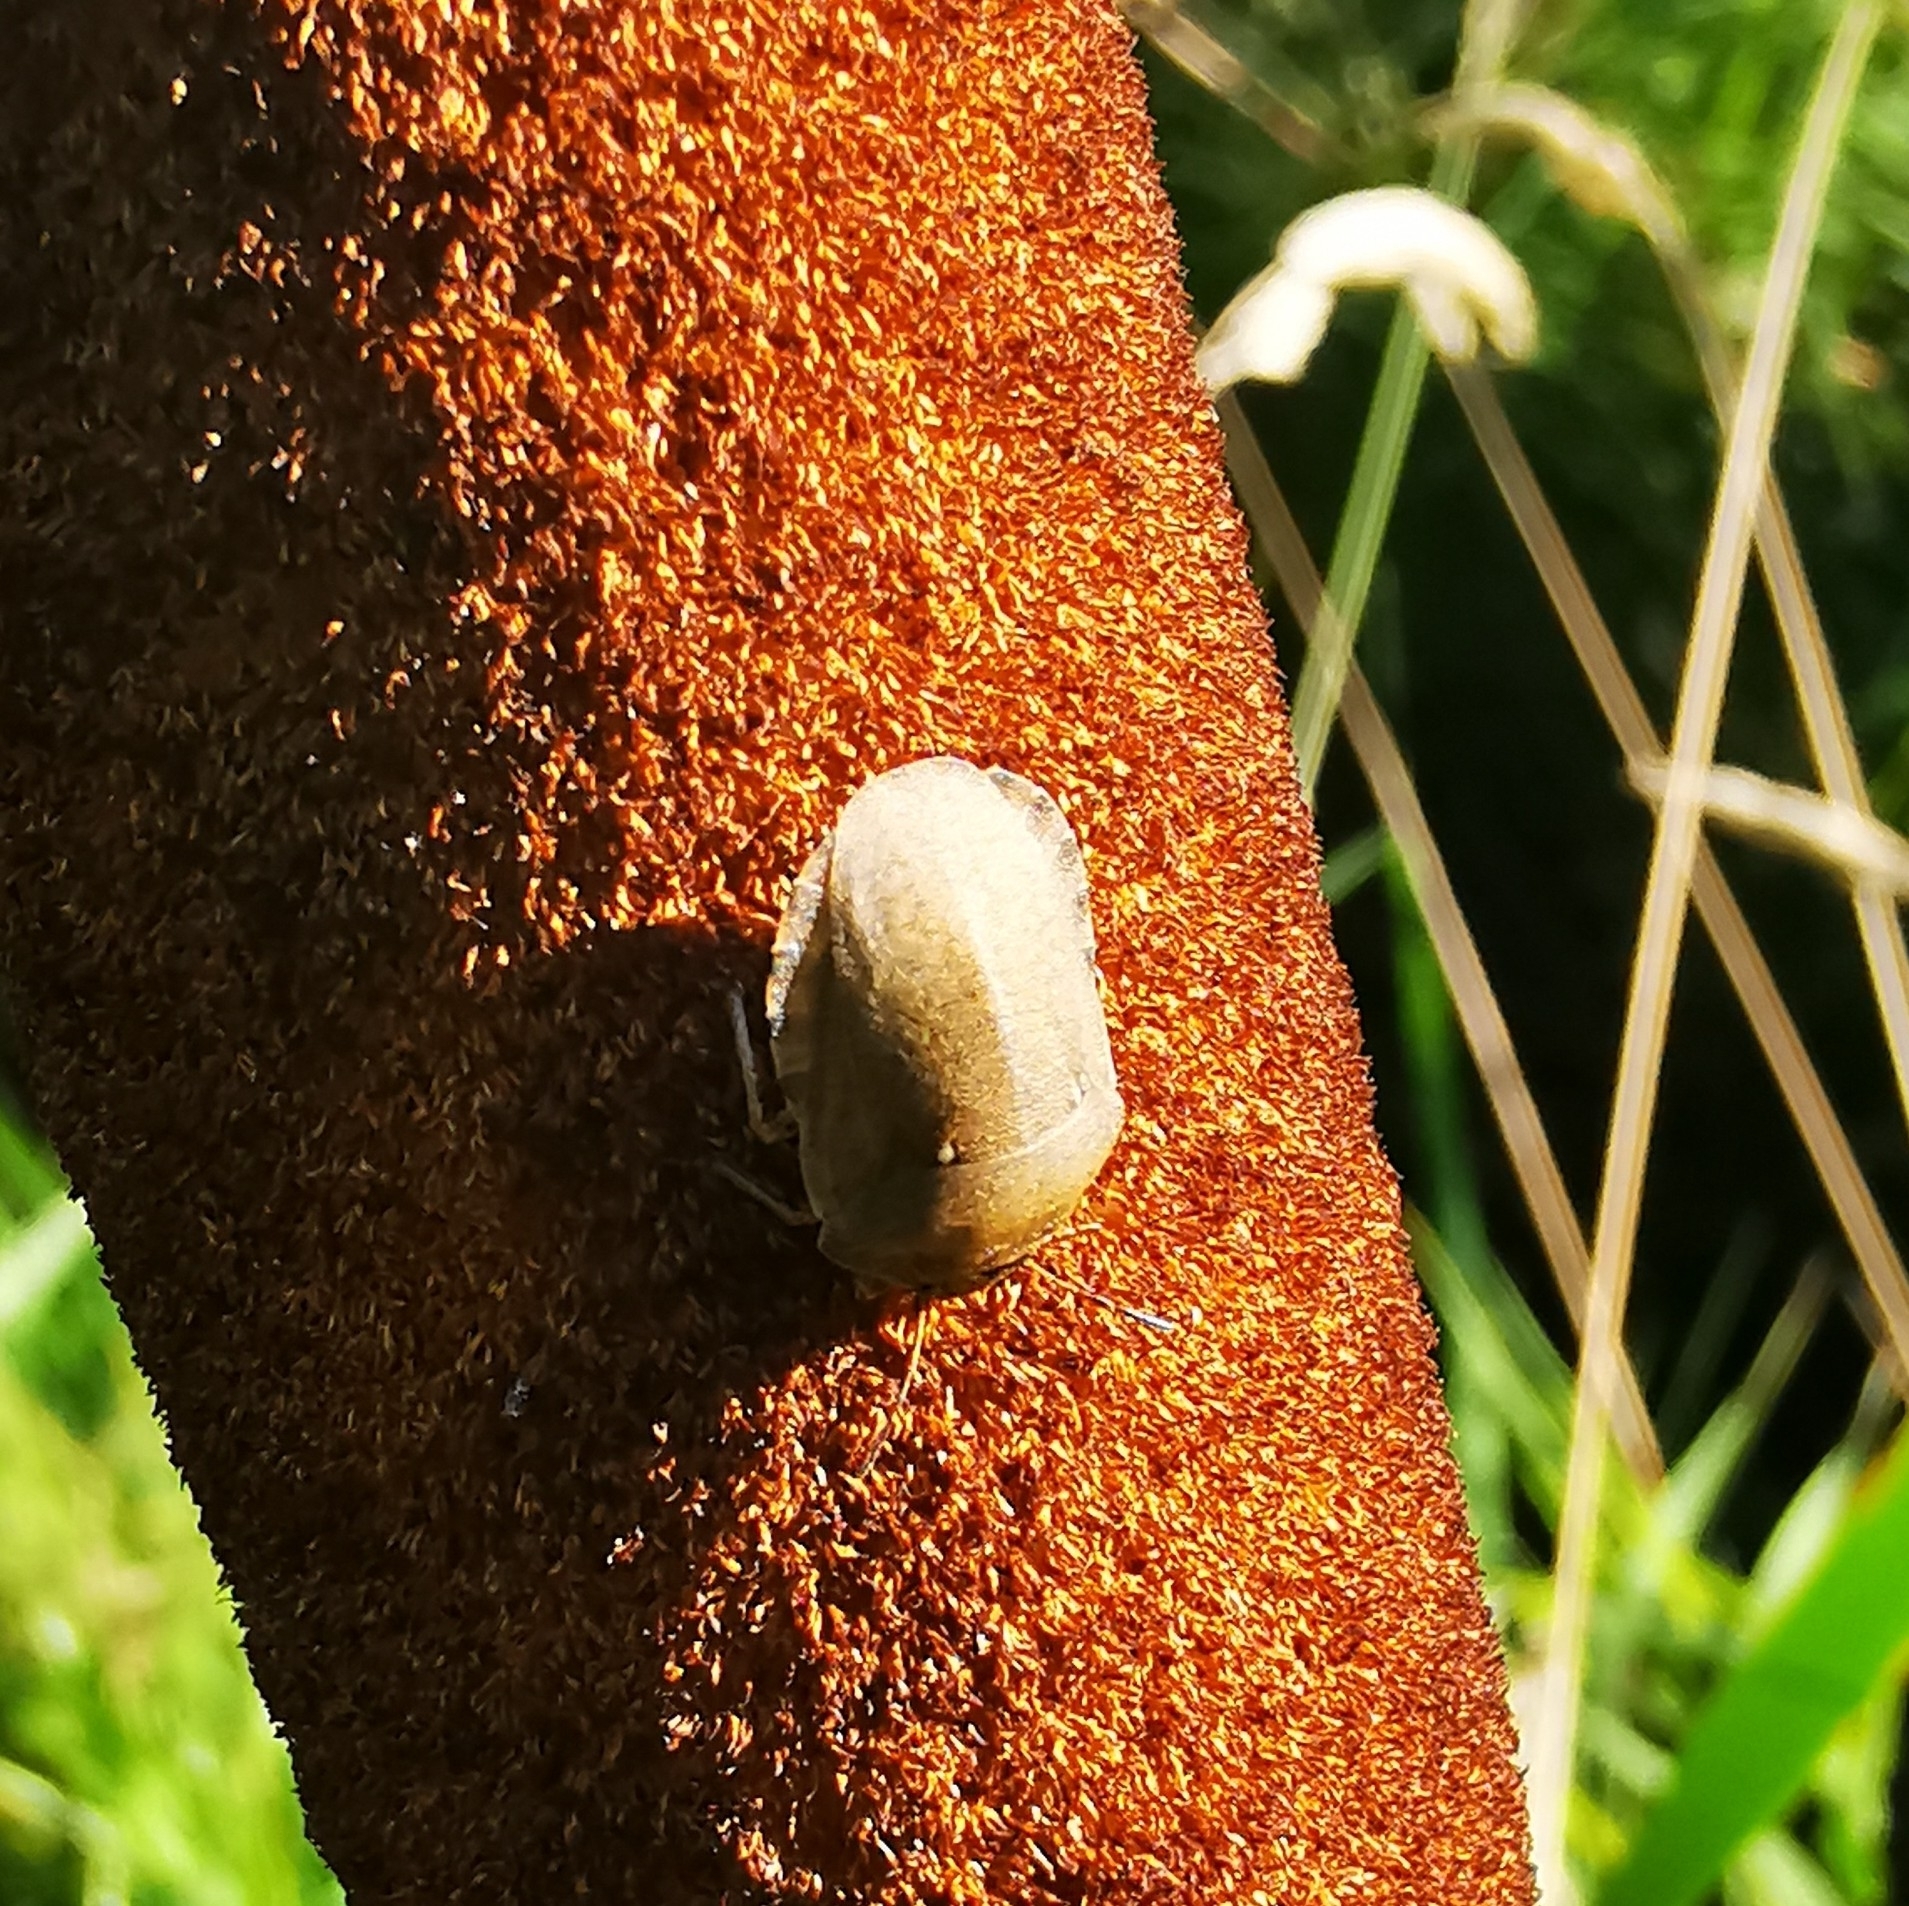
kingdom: Animalia
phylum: Arthropoda
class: Insecta
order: Hemiptera
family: Scutelleridae
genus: Eurygaster
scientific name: Eurygaster testudinaria
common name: Tortoise bug
